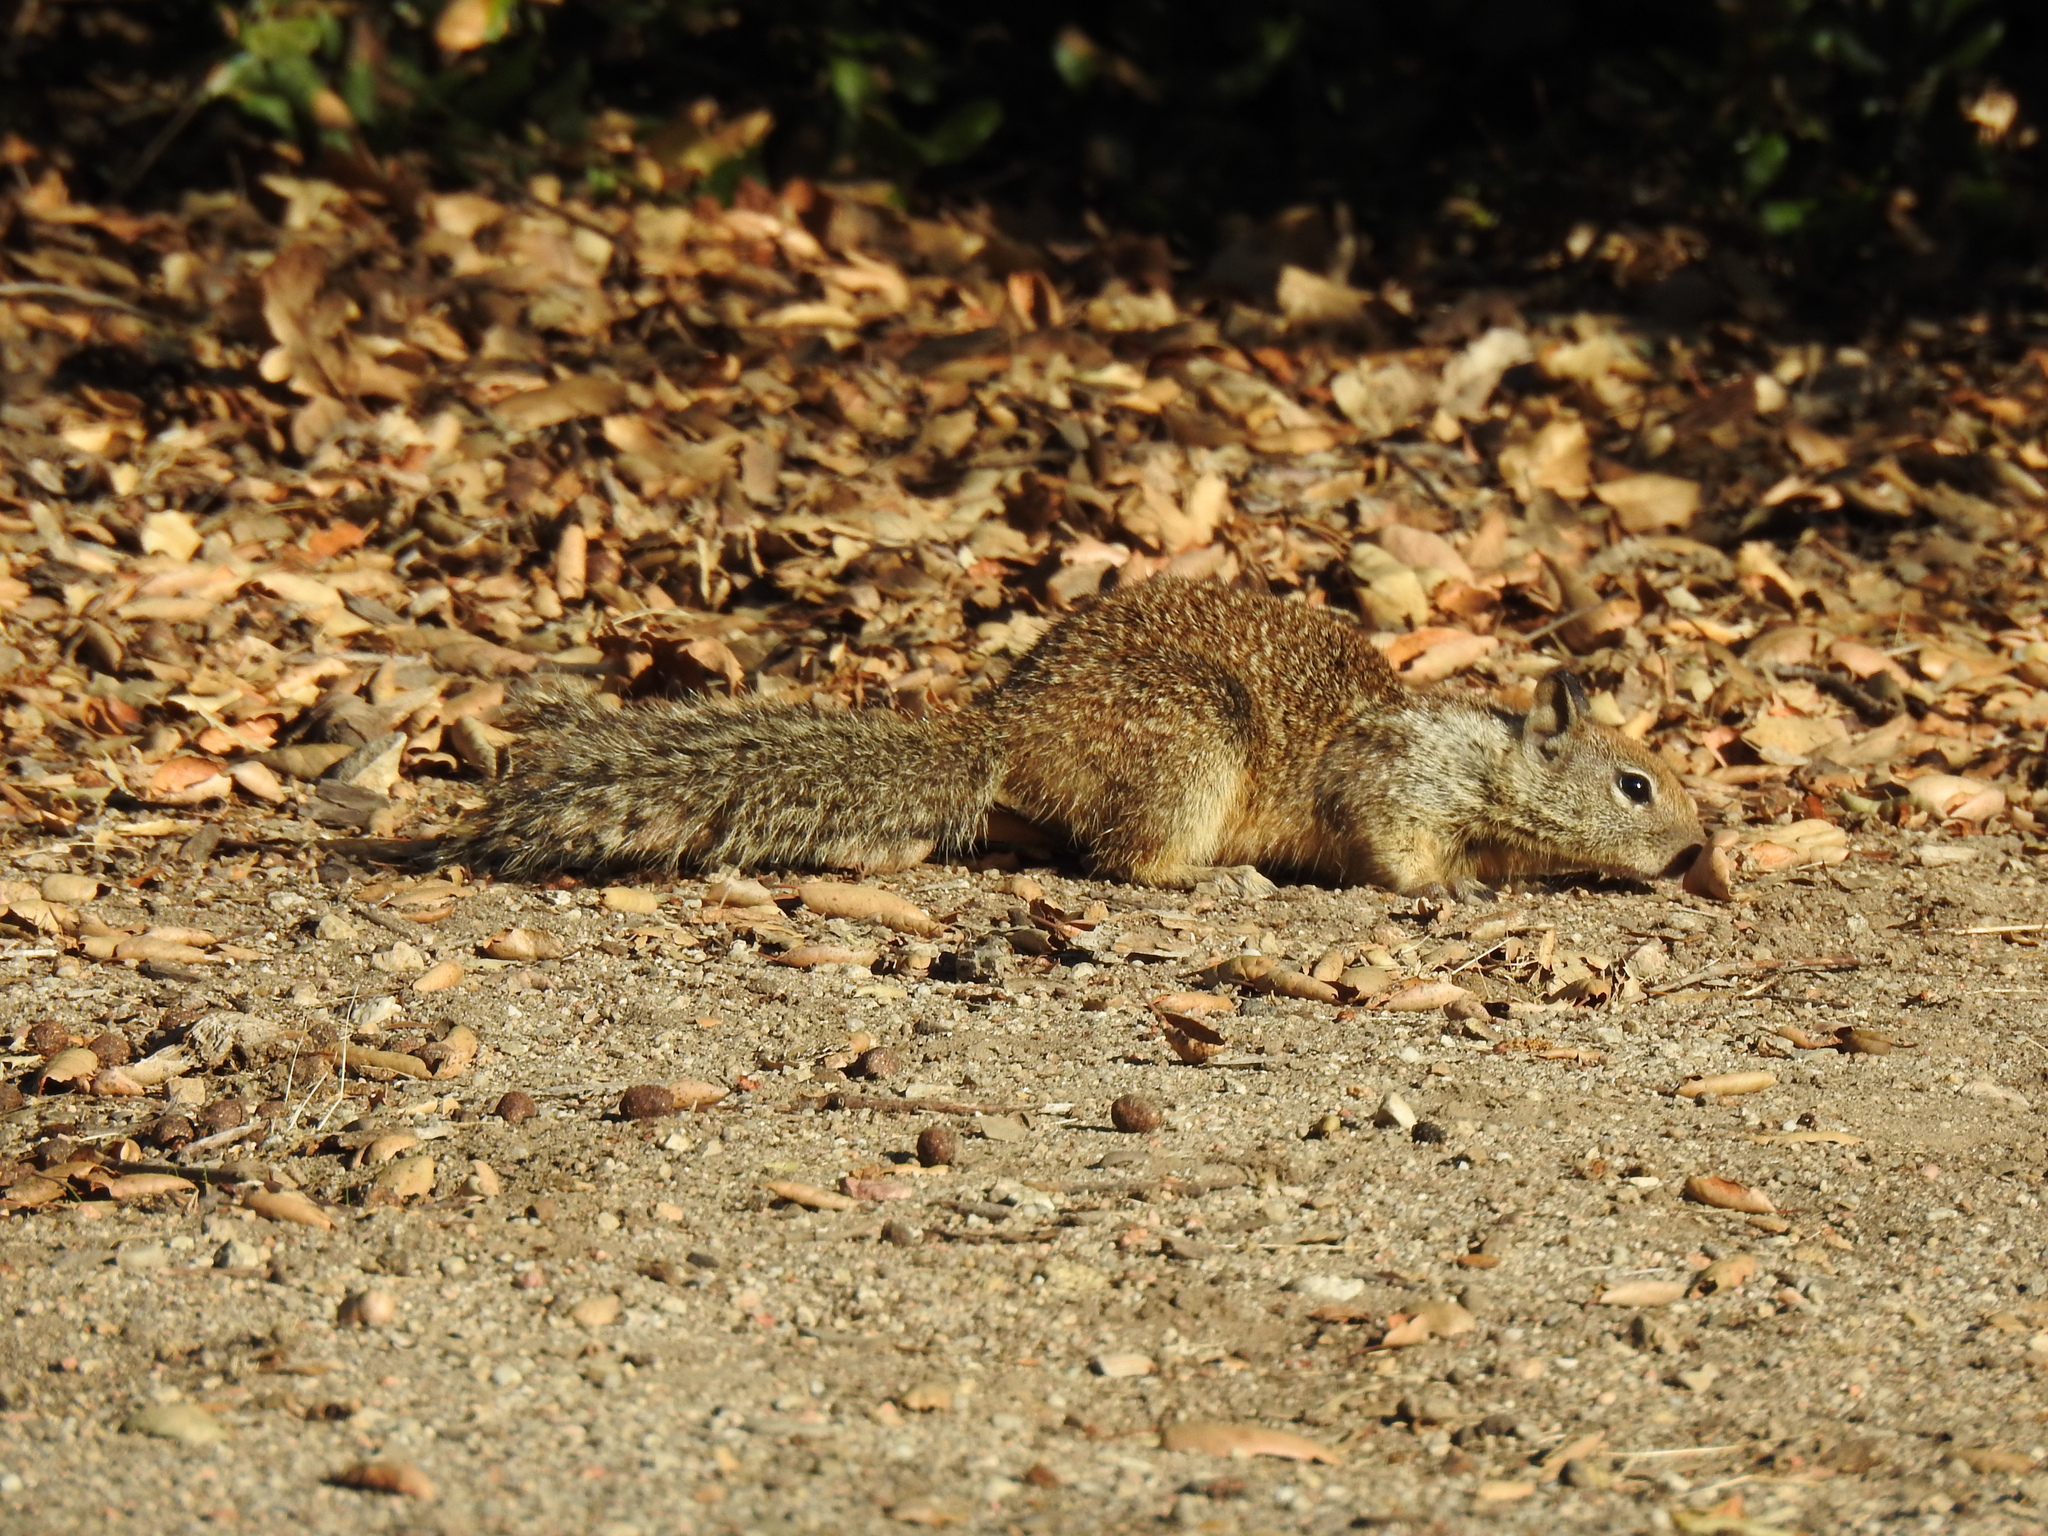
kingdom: Animalia
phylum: Chordata
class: Mammalia
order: Rodentia
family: Sciuridae
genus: Otospermophilus
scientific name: Otospermophilus beecheyi
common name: California ground squirrel
